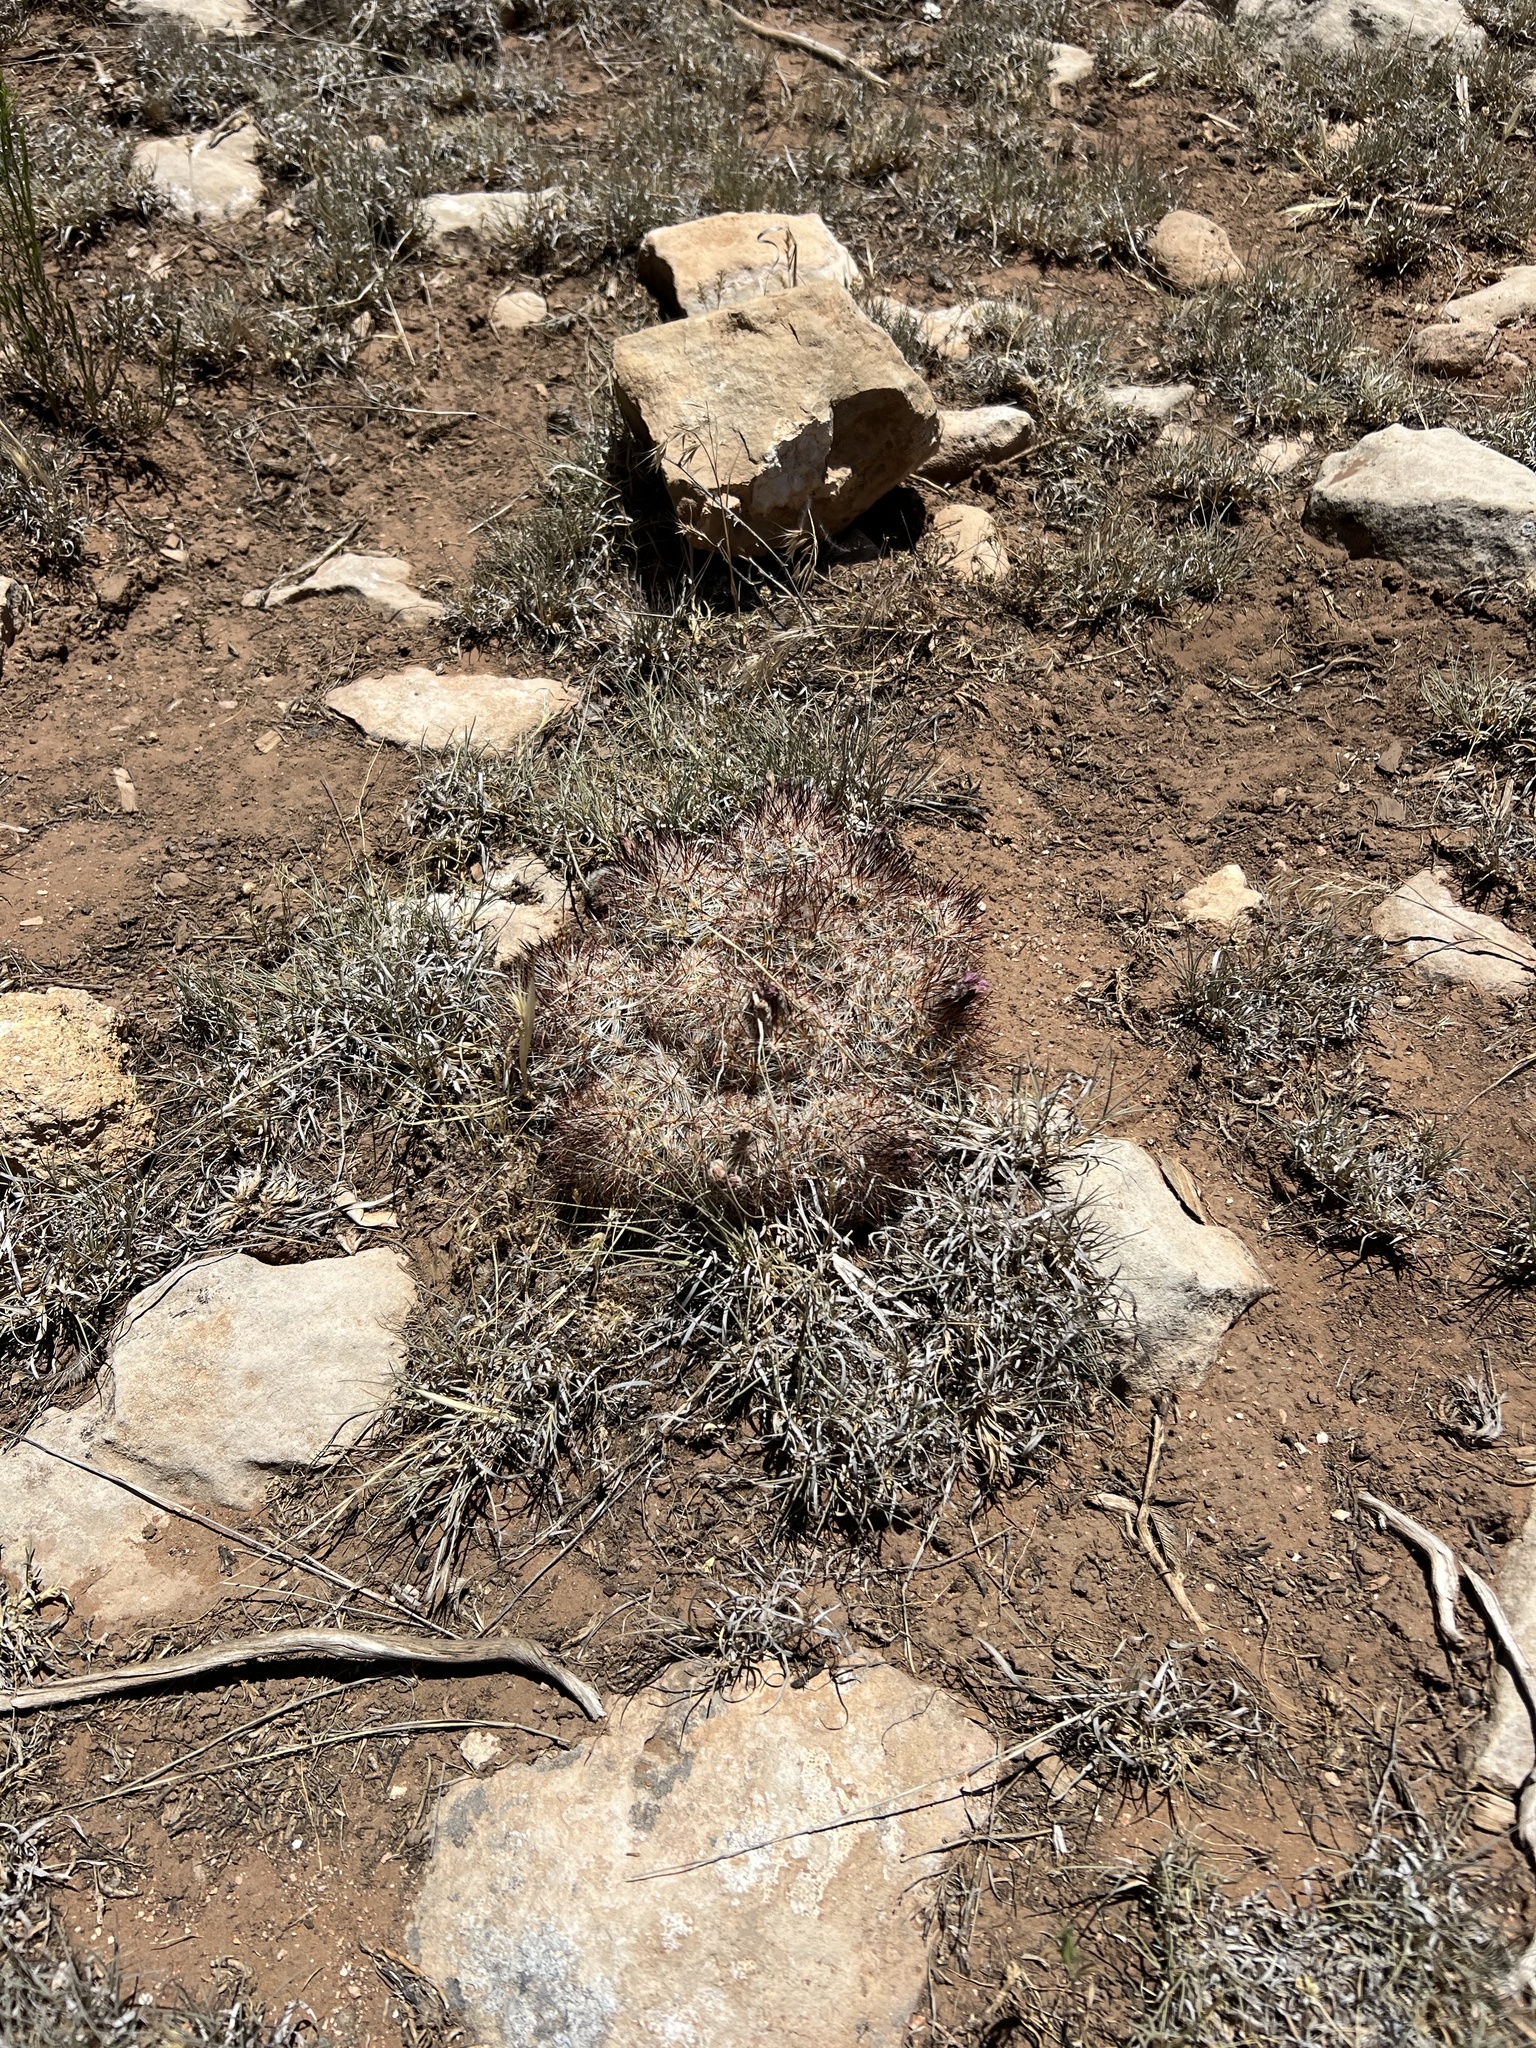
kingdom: Plantae
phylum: Tracheophyta
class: Magnoliopsida
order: Caryophyllales
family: Cactaceae
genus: Pelecyphora
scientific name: Pelecyphora vivipara
